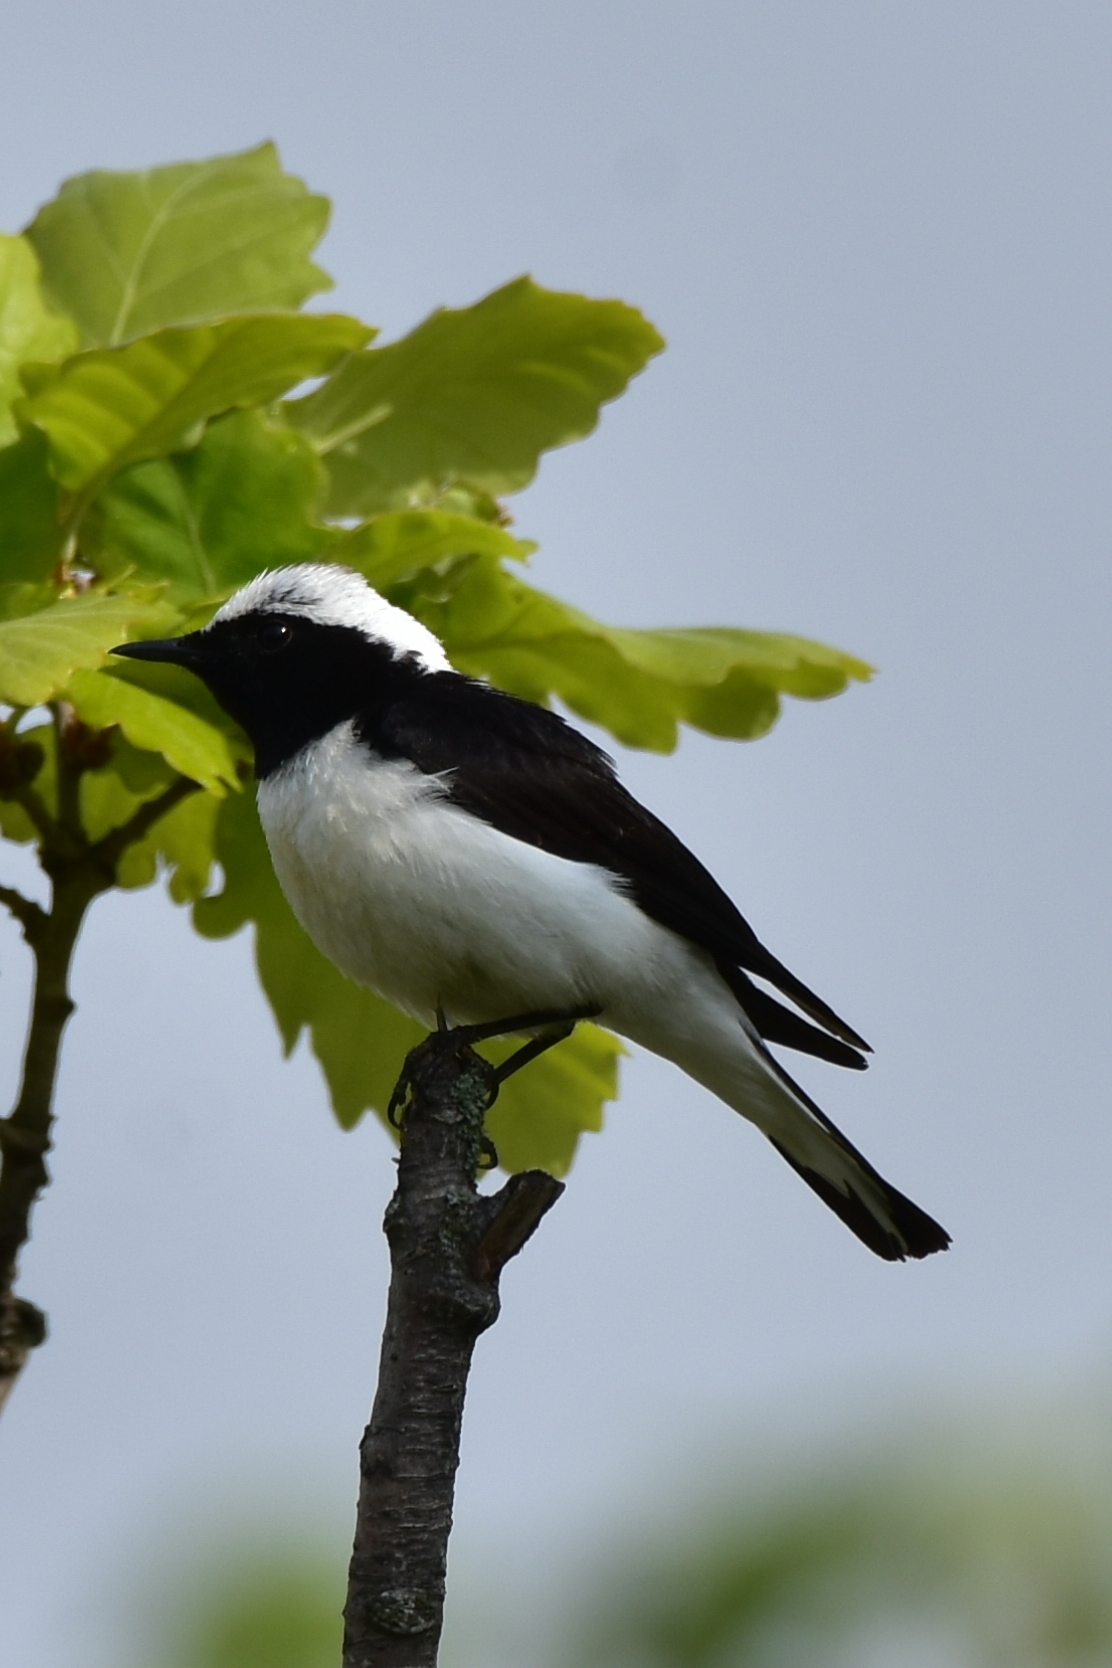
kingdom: Animalia
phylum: Chordata
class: Aves
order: Passeriformes
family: Muscicapidae
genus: Oenanthe
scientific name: Oenanthe hispanica
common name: Black-eared wheatear
